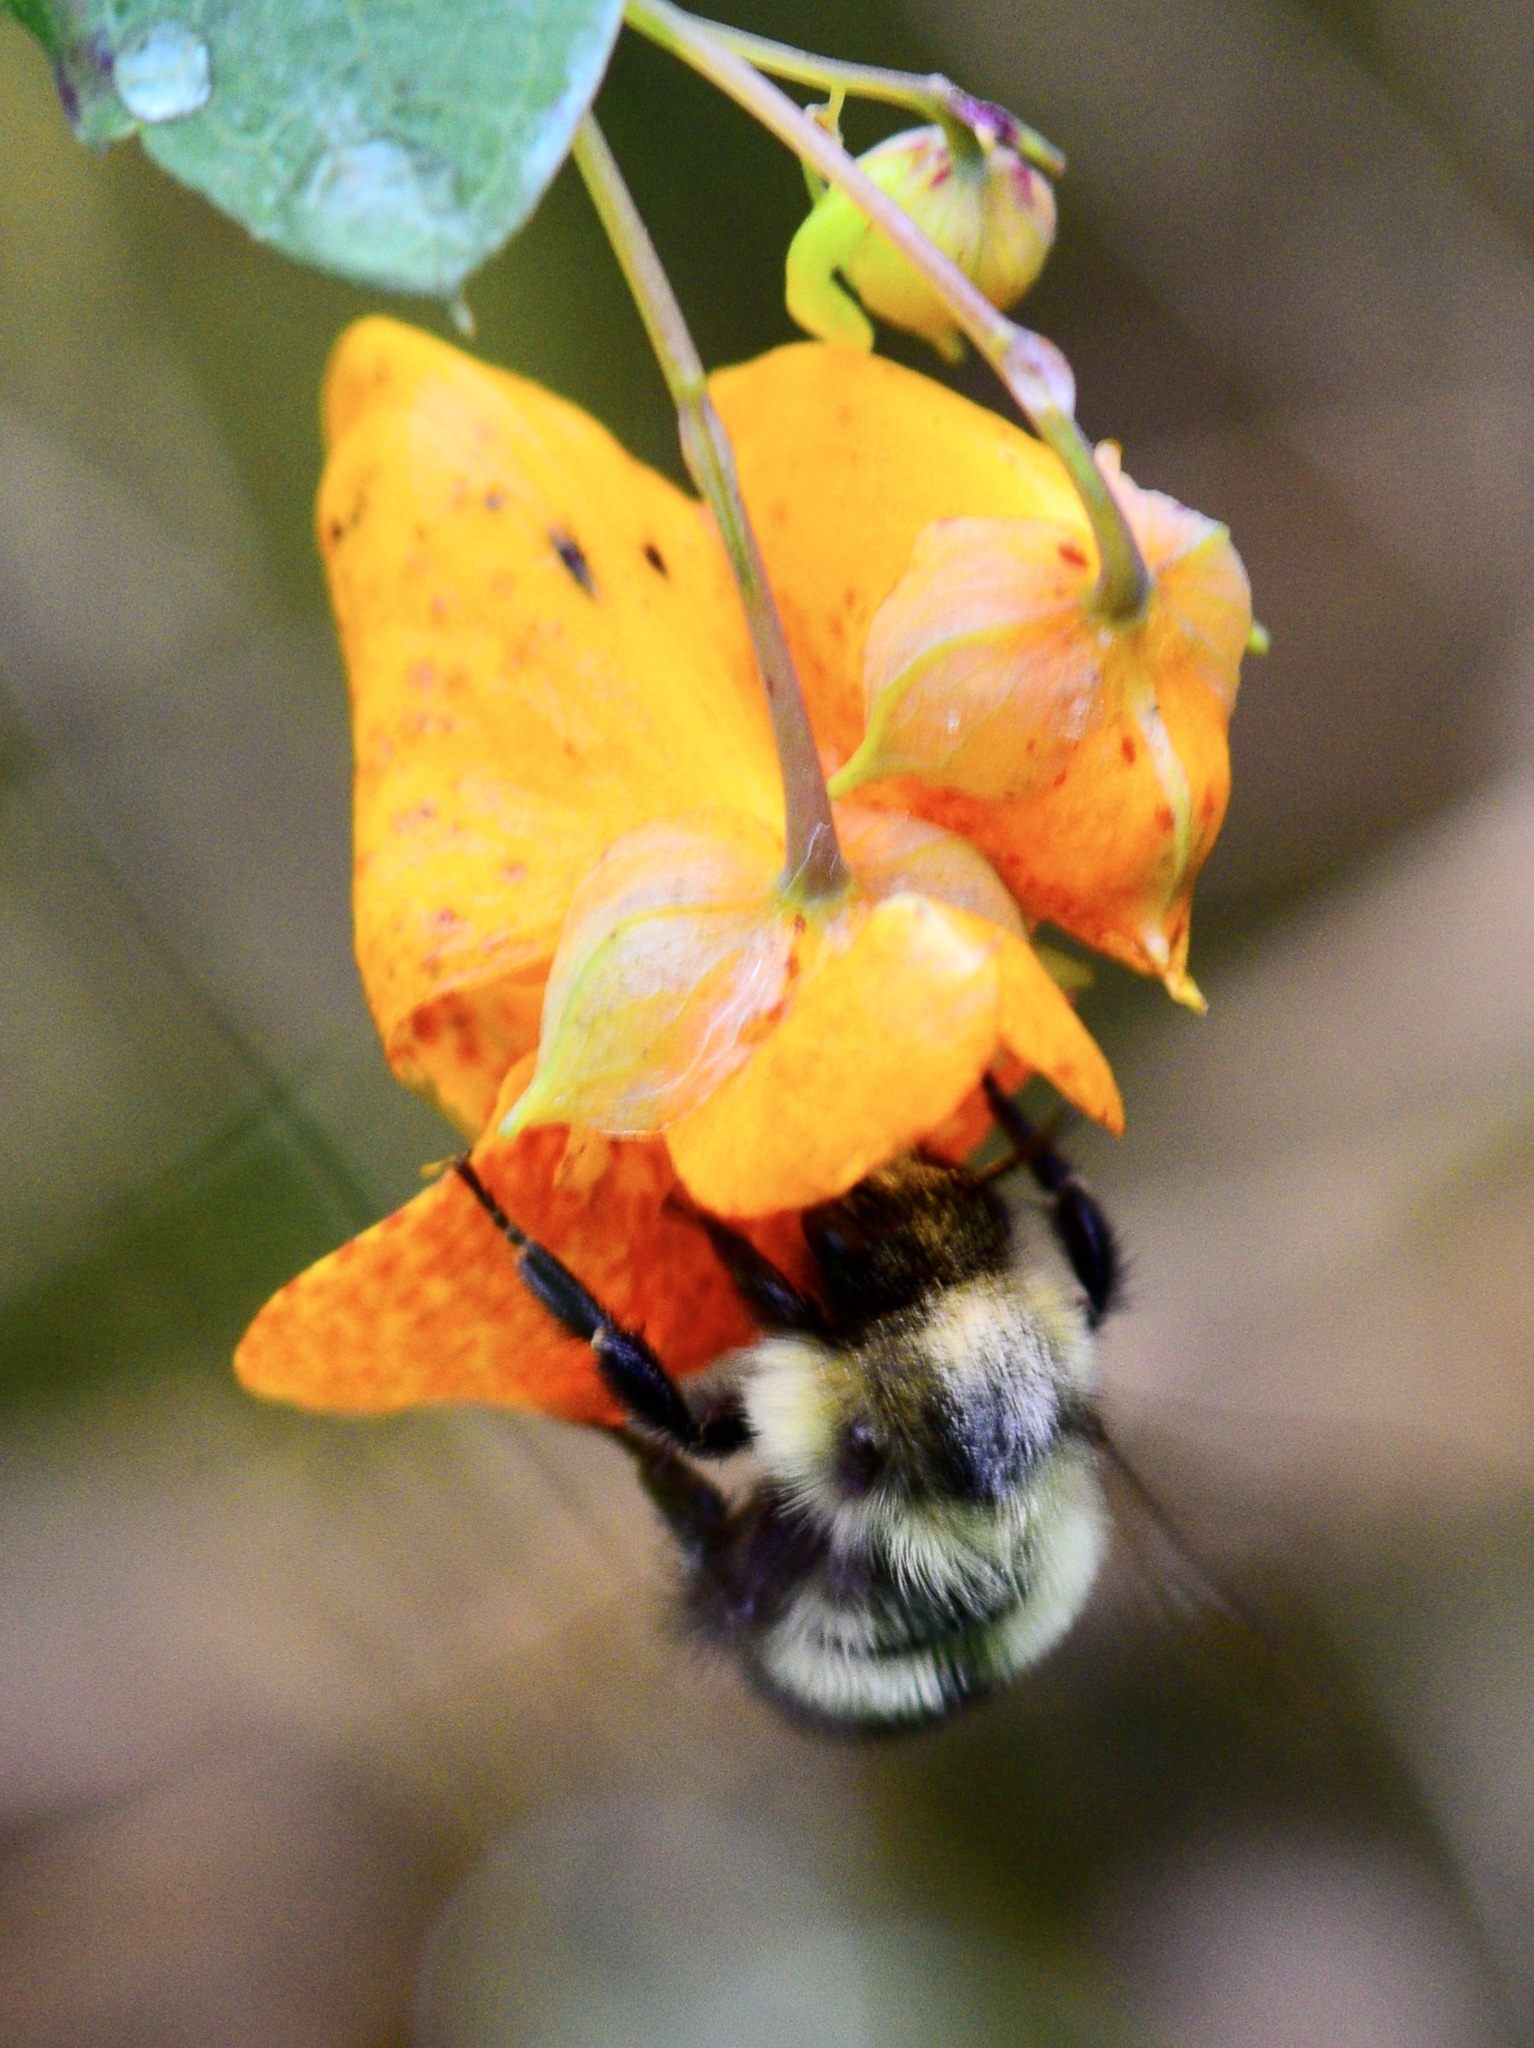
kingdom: Animalia
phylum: Arthropoda
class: Insecta
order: Hymenoptera
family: Apidae
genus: Pyrobombus
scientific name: Pyrobombus
